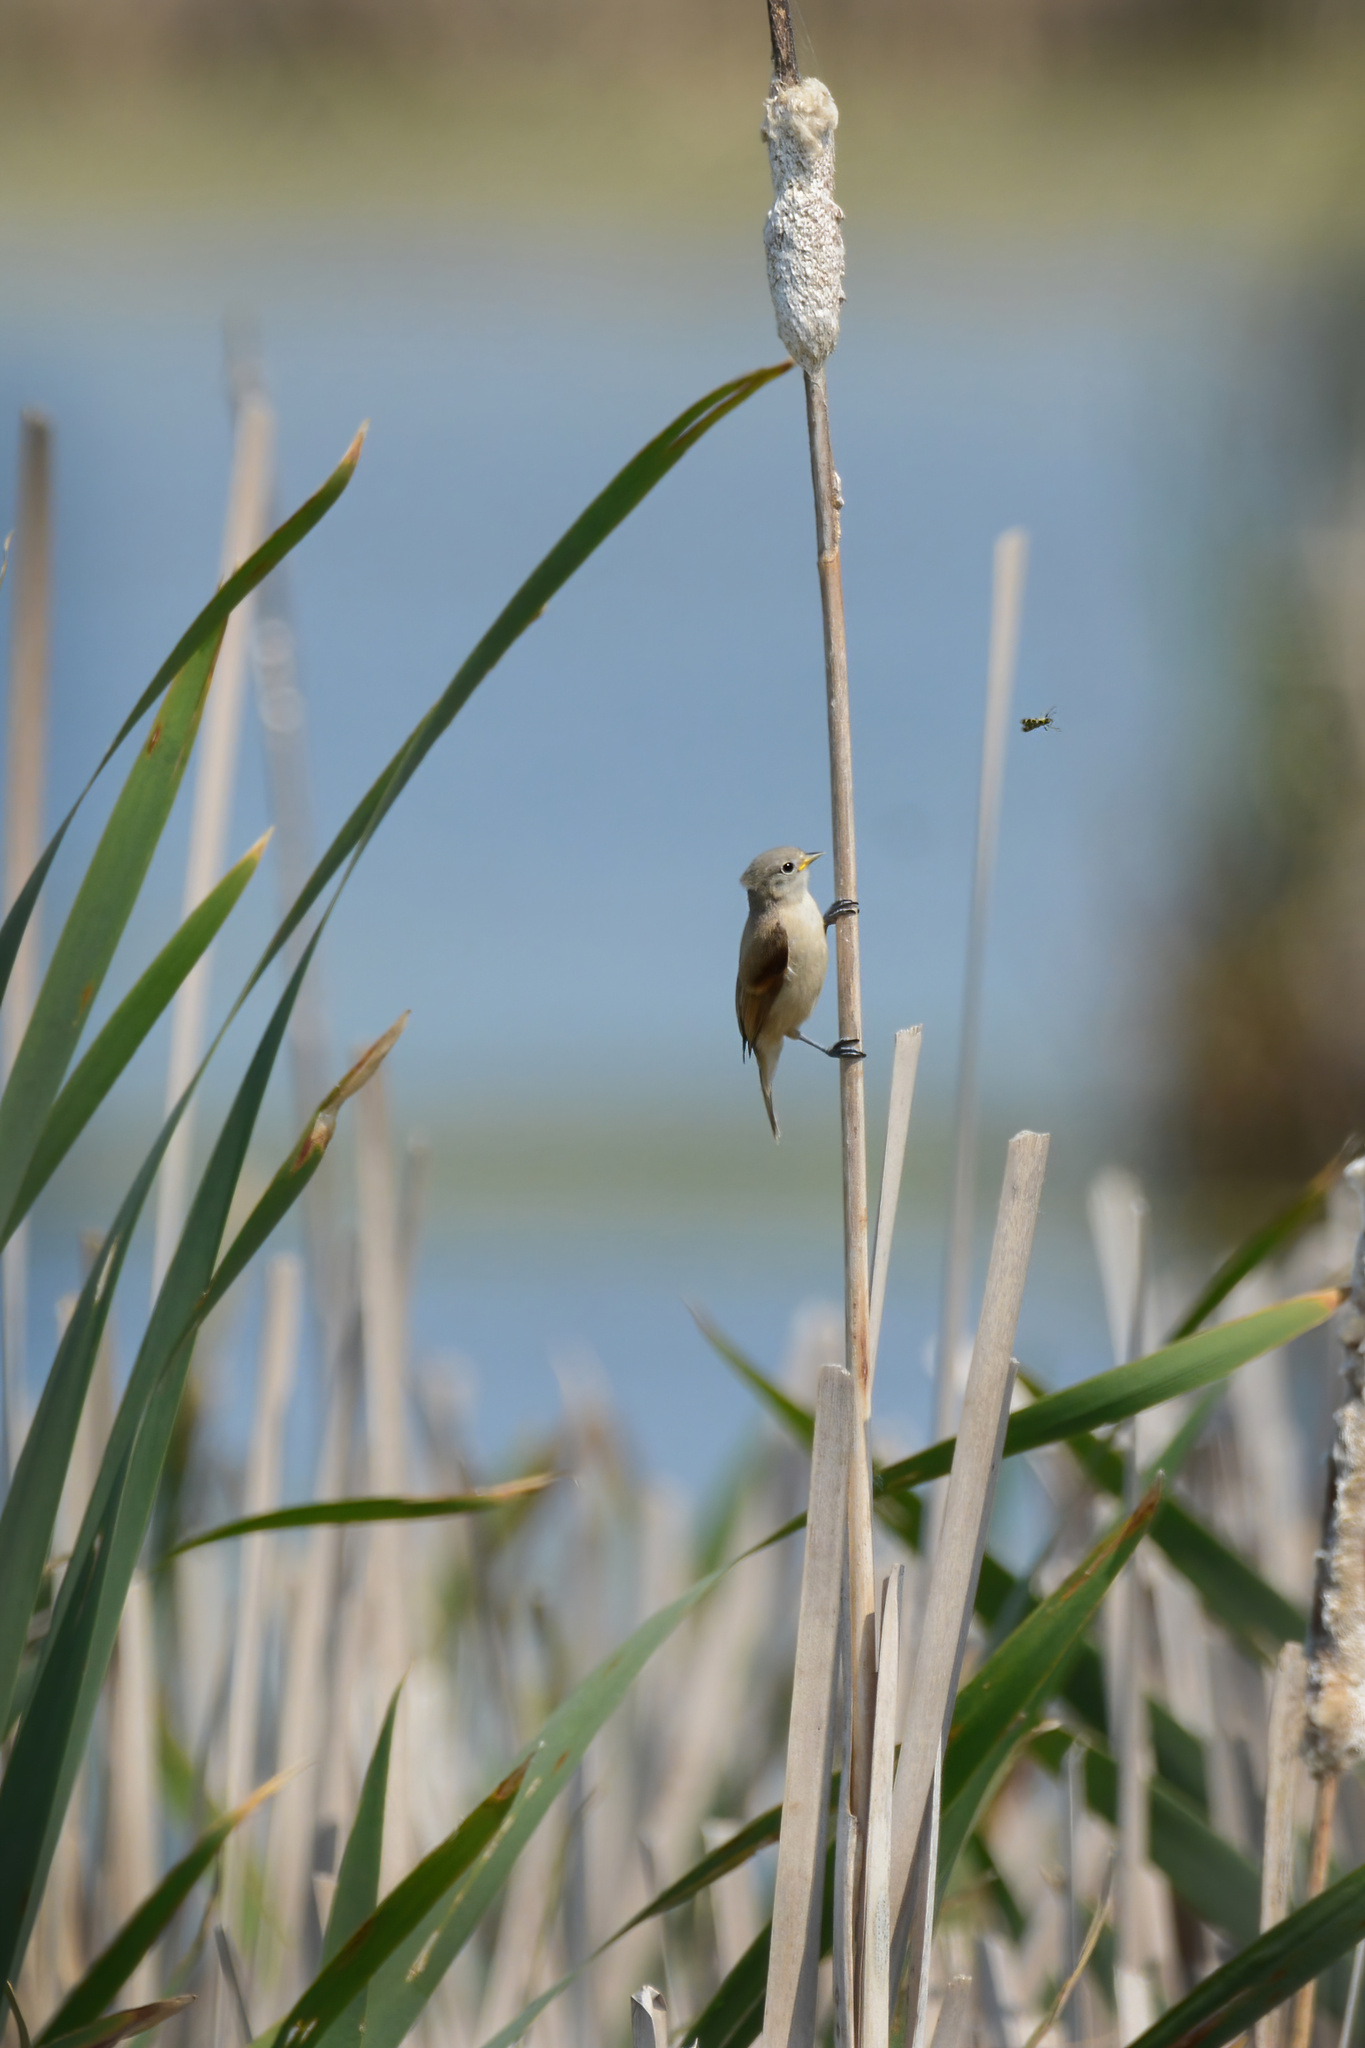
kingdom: Animalia
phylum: Chordata
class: Aves
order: Passeriformes
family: Remizidae
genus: Remiz
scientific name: Remiz pendulinus
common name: Eurasian penduline tit
